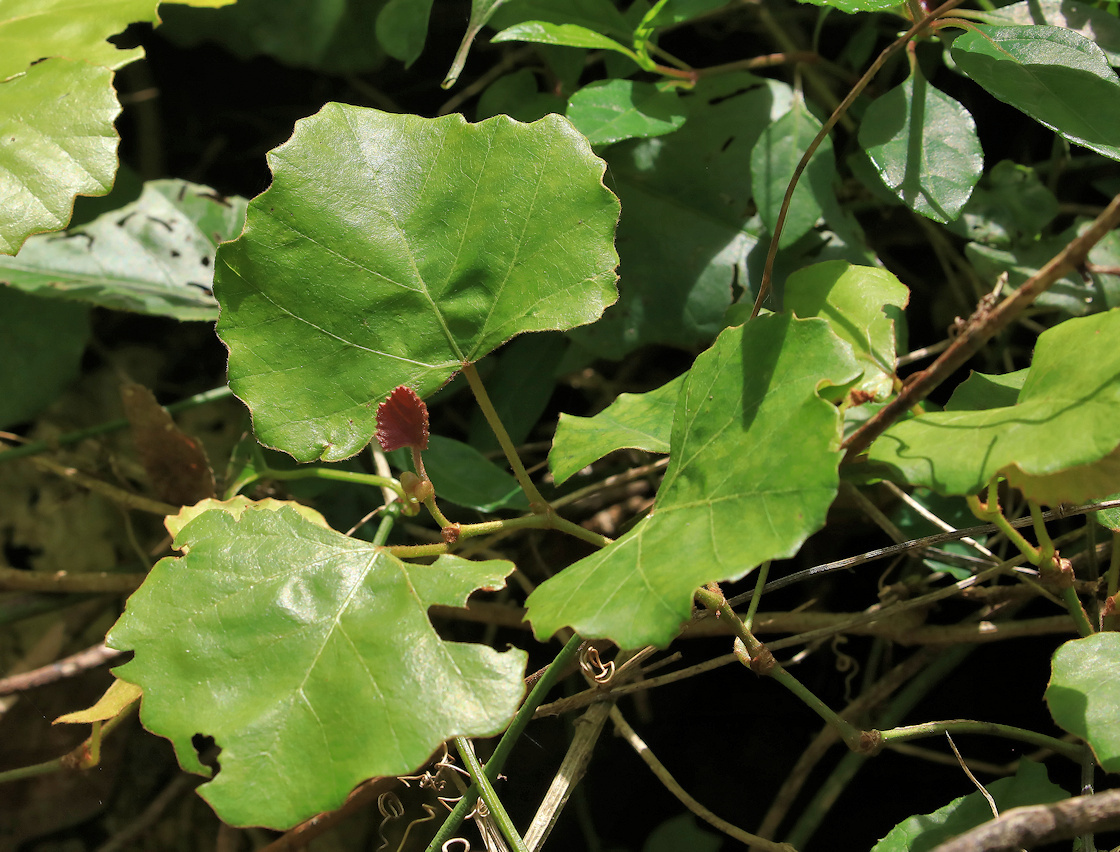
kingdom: Plantae
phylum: Tracheophyta
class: Magnoliopsida
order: Vitales
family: Vitaceae
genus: Rhoicissus
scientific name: Rhoicissus tomentosa
